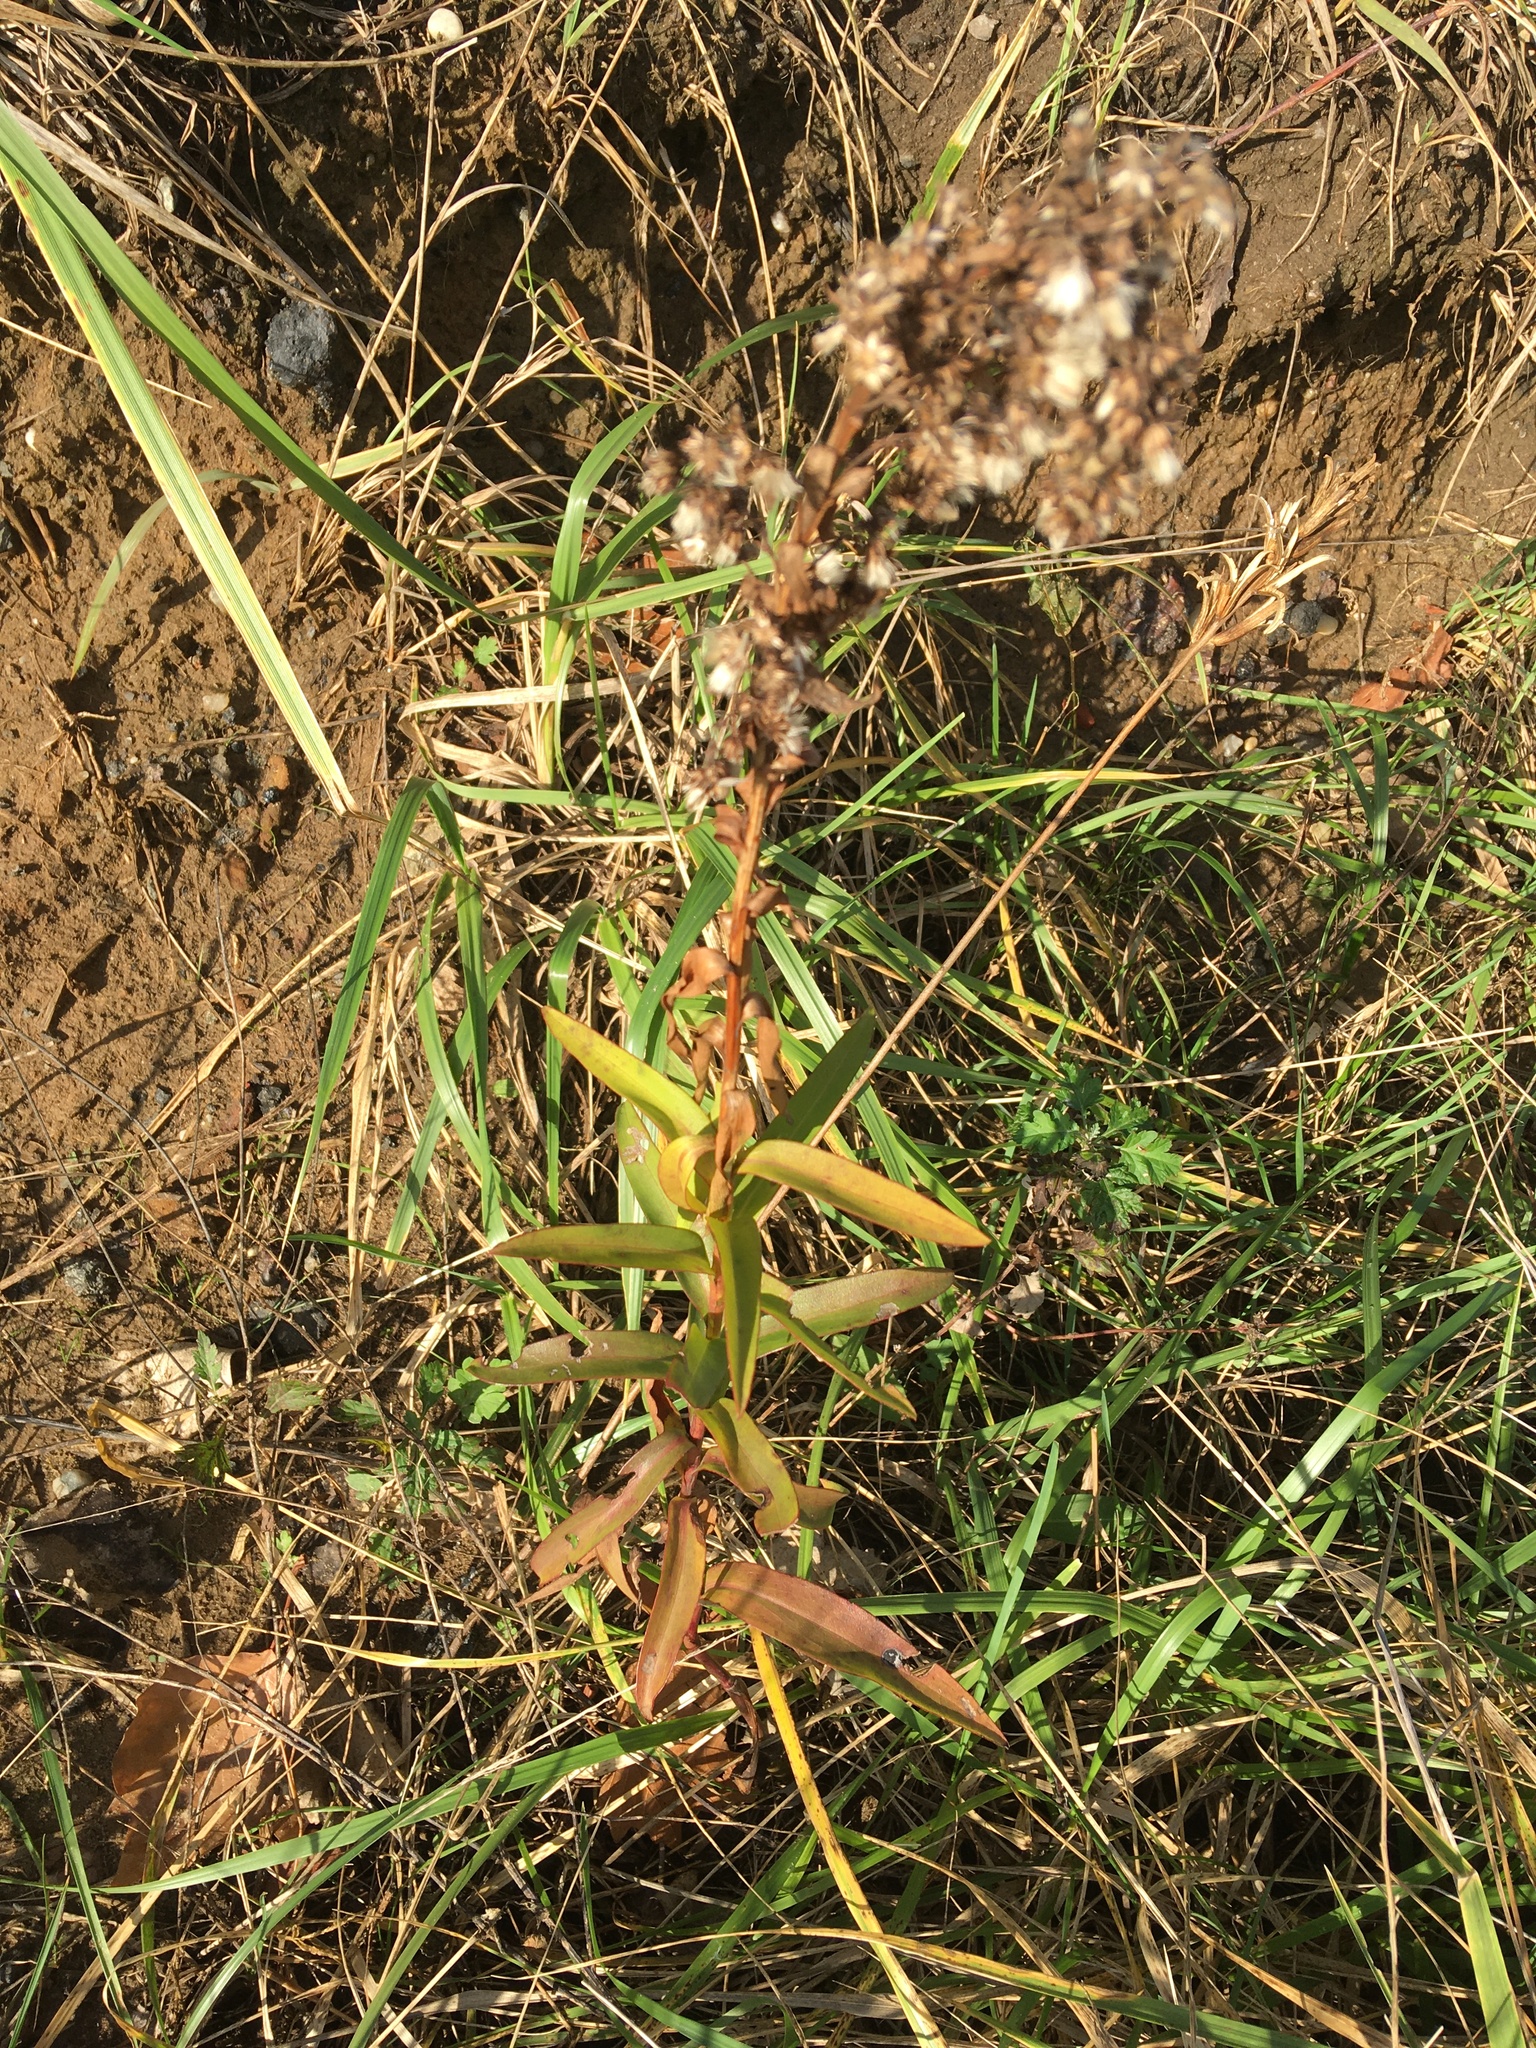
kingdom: Plantae
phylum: Tracheophyta
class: Magnoliopsida
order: Asterales
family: Asteraceae
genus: Solidago
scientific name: Solidago sempervirens
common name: Salt-marsh goldenrod
